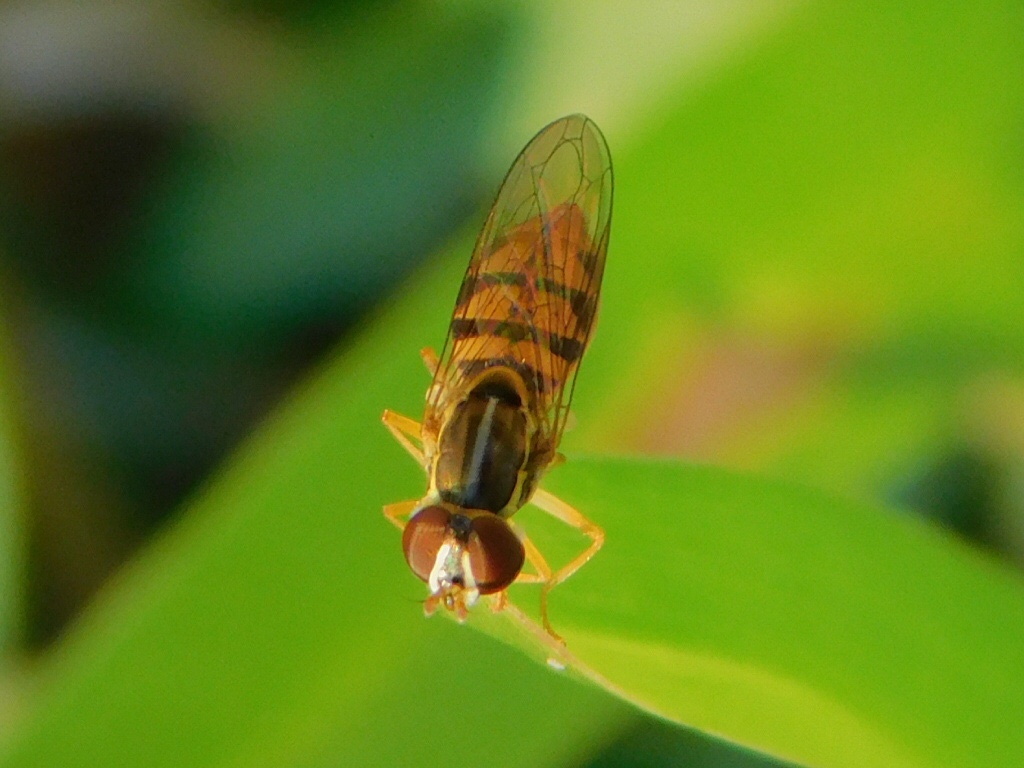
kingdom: Animalia
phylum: Arthropoda
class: Insecta
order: Diptera
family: Syrphidae
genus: Toxomerus
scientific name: Toxomerus floralis
